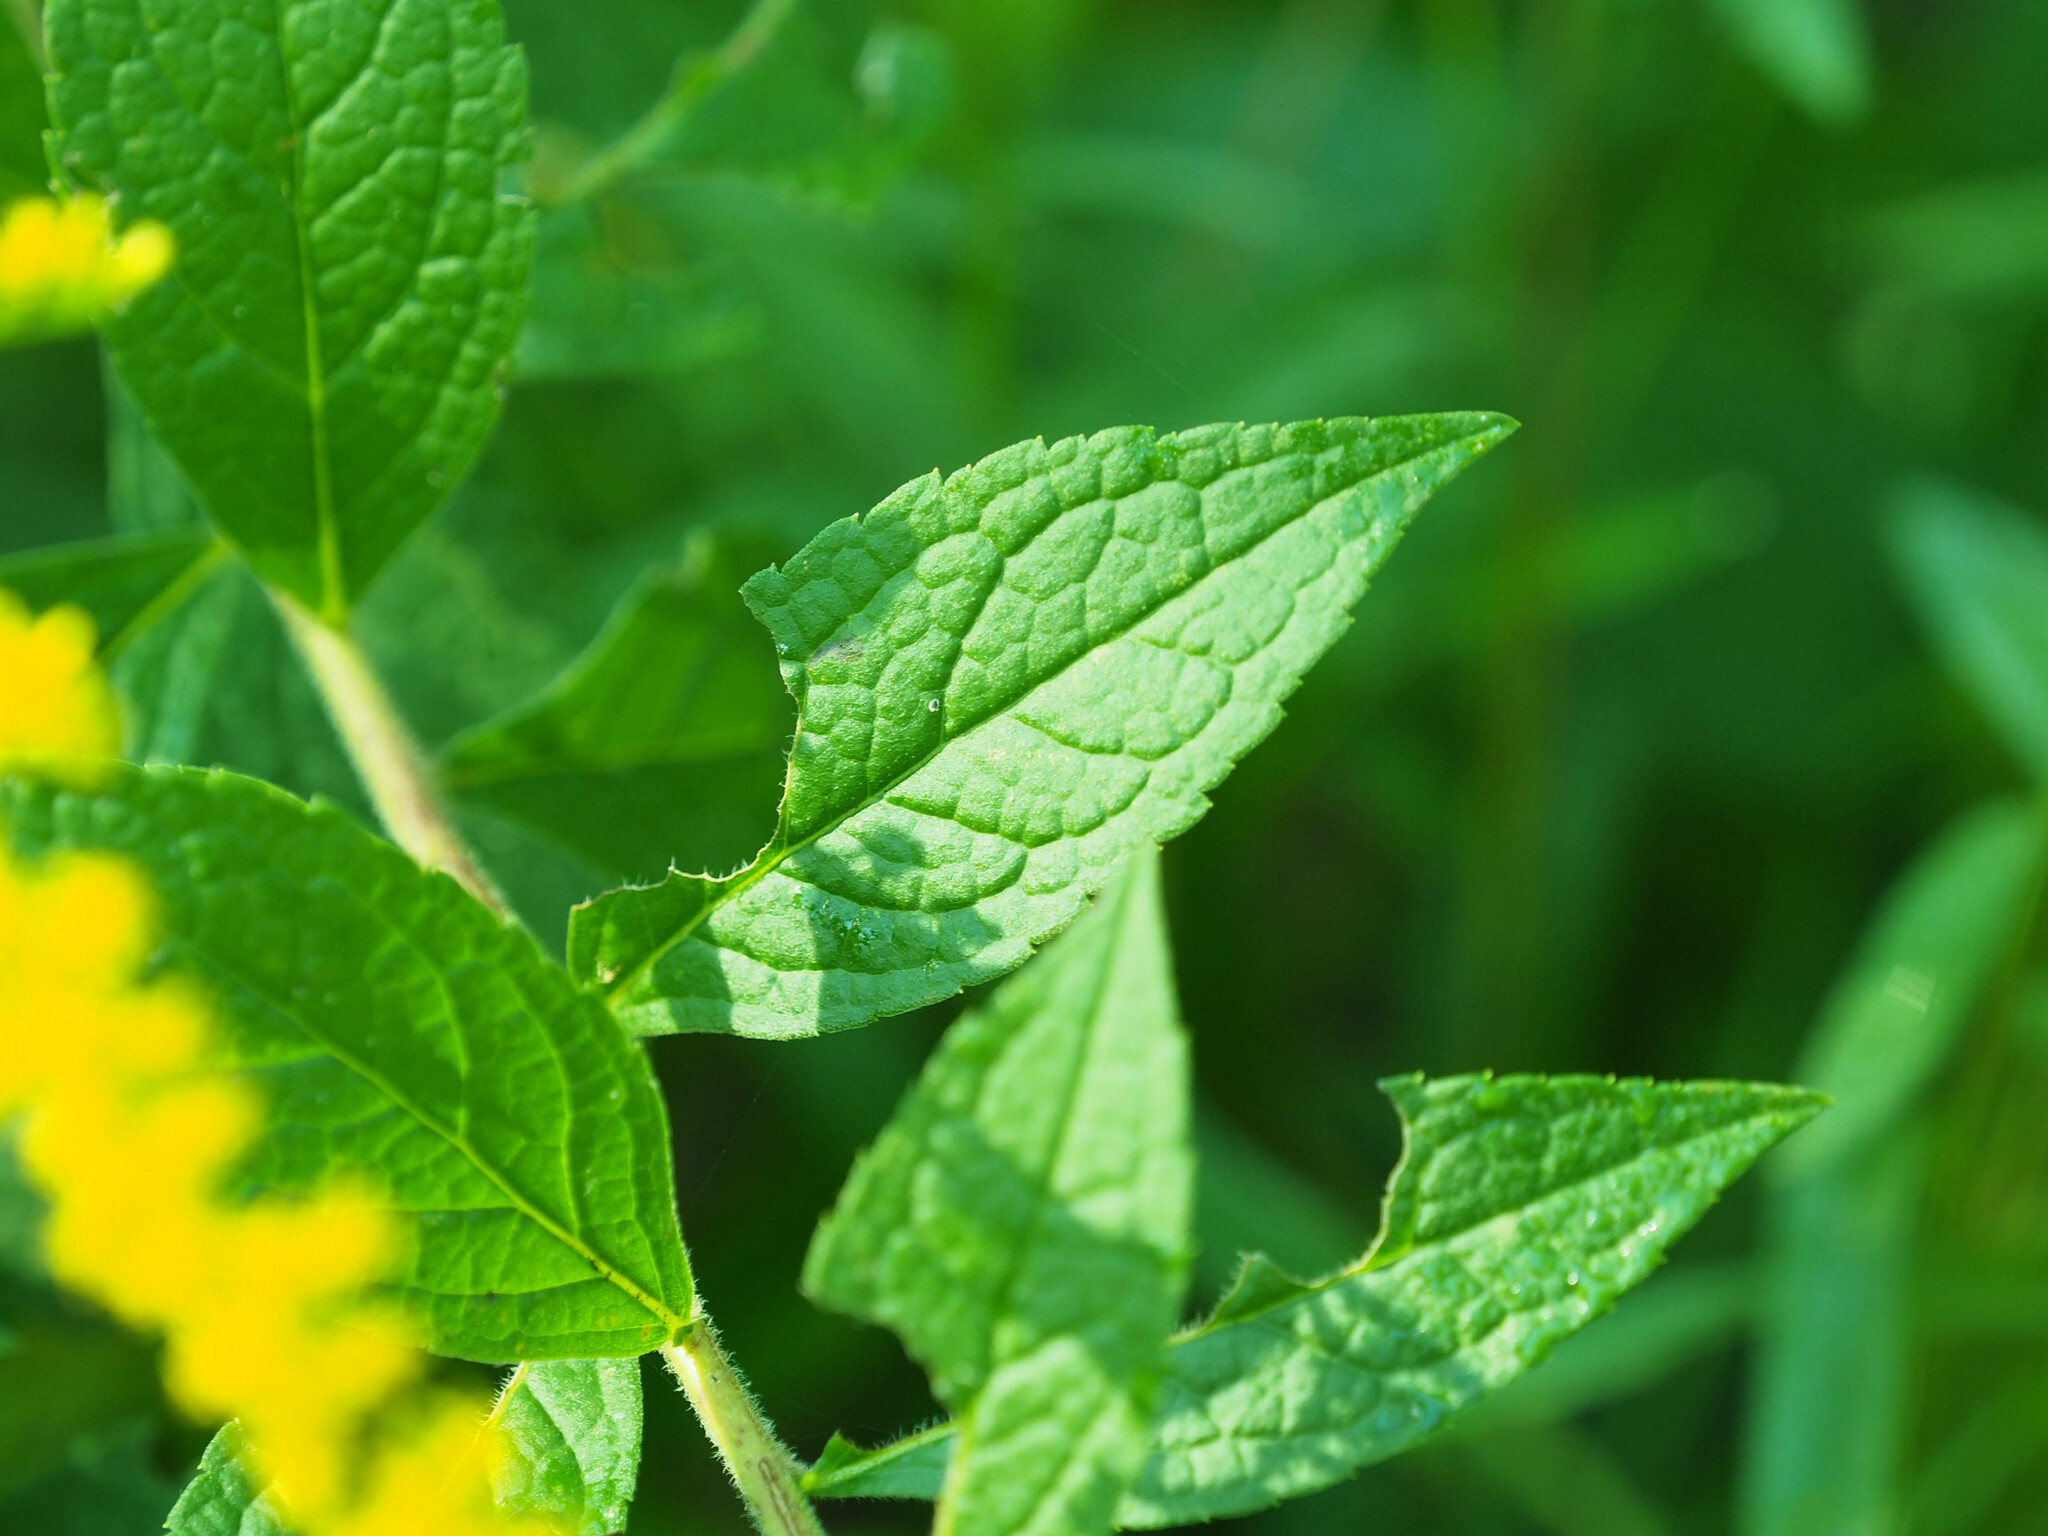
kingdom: Plantae
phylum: Tracheophyta
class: Magnoliopsida
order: Asterales
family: Asteraceae
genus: Solidago
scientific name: Solidago rugosa
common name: Rough-stemmed goldenrod
